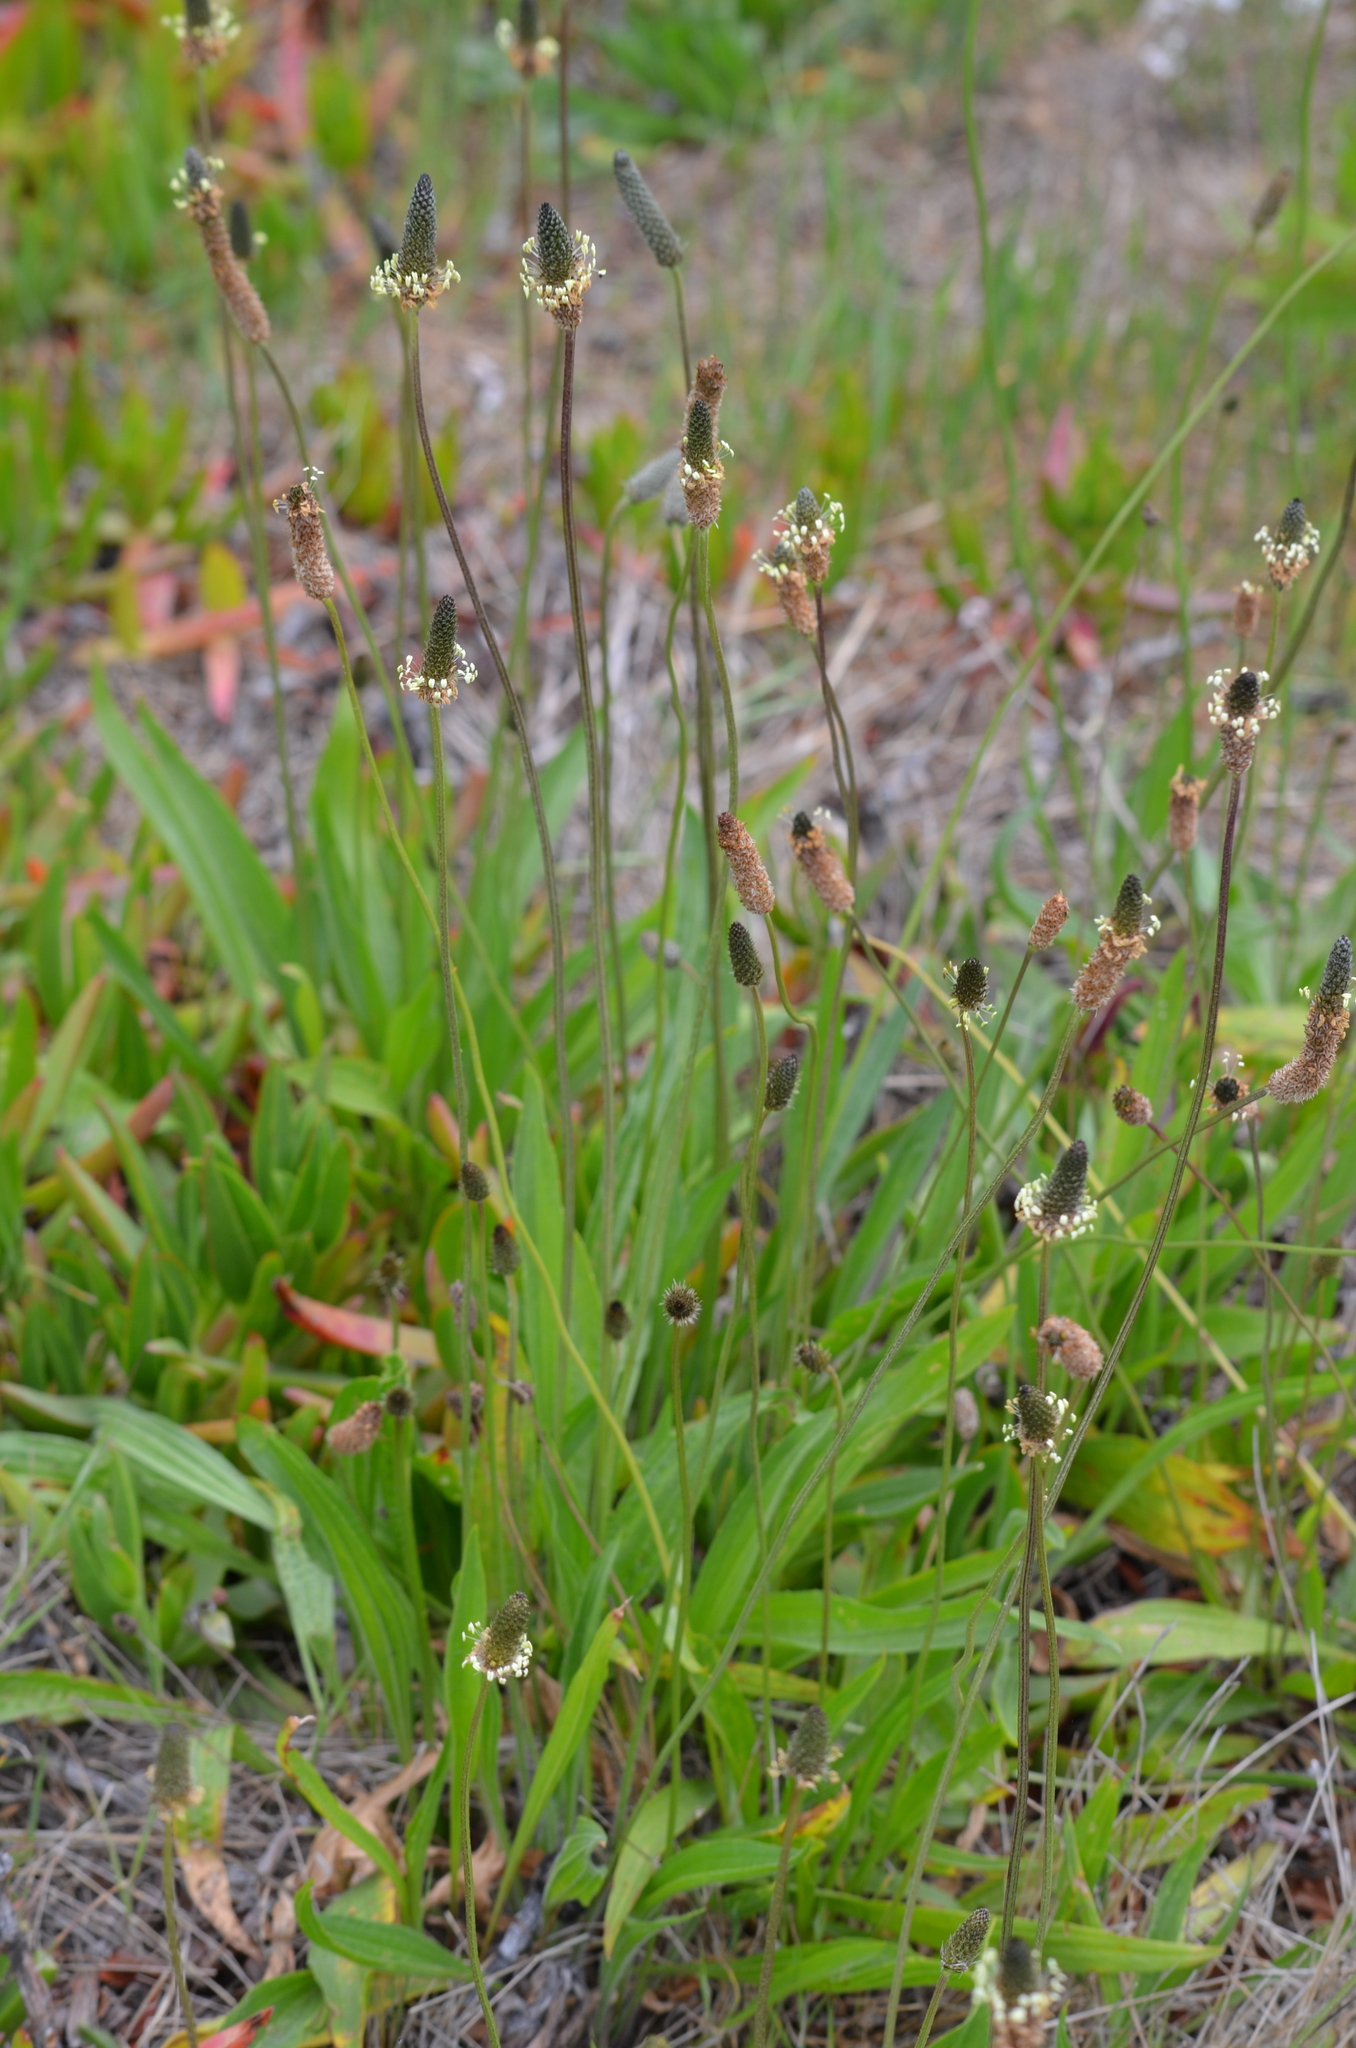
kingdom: Plantae
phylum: Tracheophyta
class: Magnoliopsida
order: Lamiales
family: Plantaginaceae
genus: Plantago
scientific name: Plantago lanceolata
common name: Ribwort plantain
